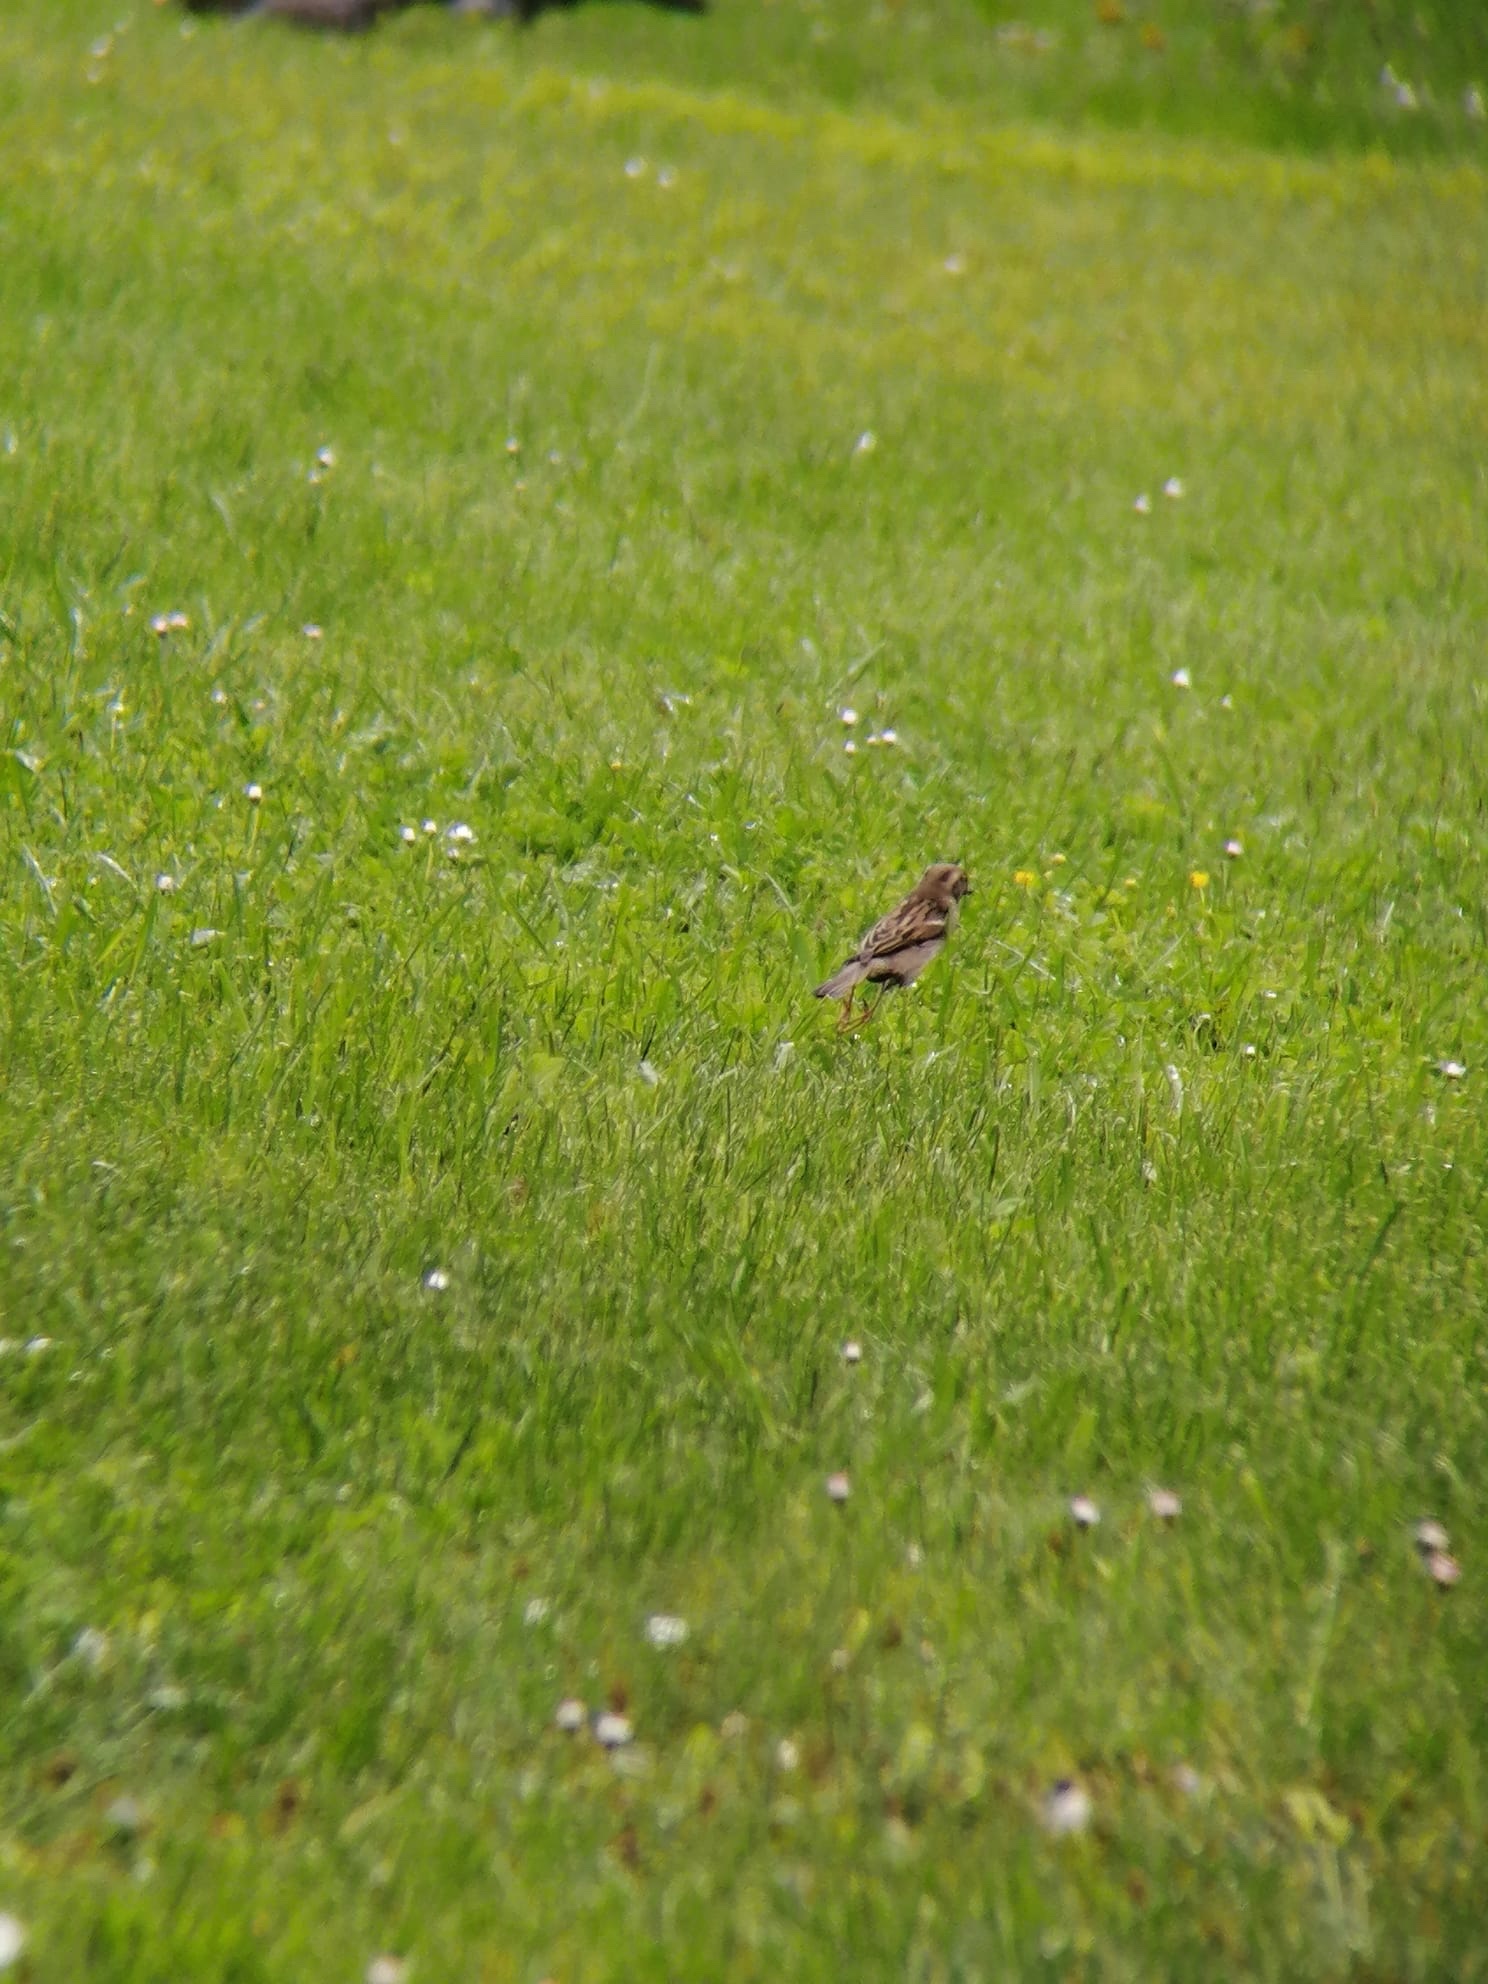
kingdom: Animalia
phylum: Chordata
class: Aves
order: Passeriformes
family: Passeridae
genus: Passer
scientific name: Passer montanus
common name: Eurasian tree sparrow
